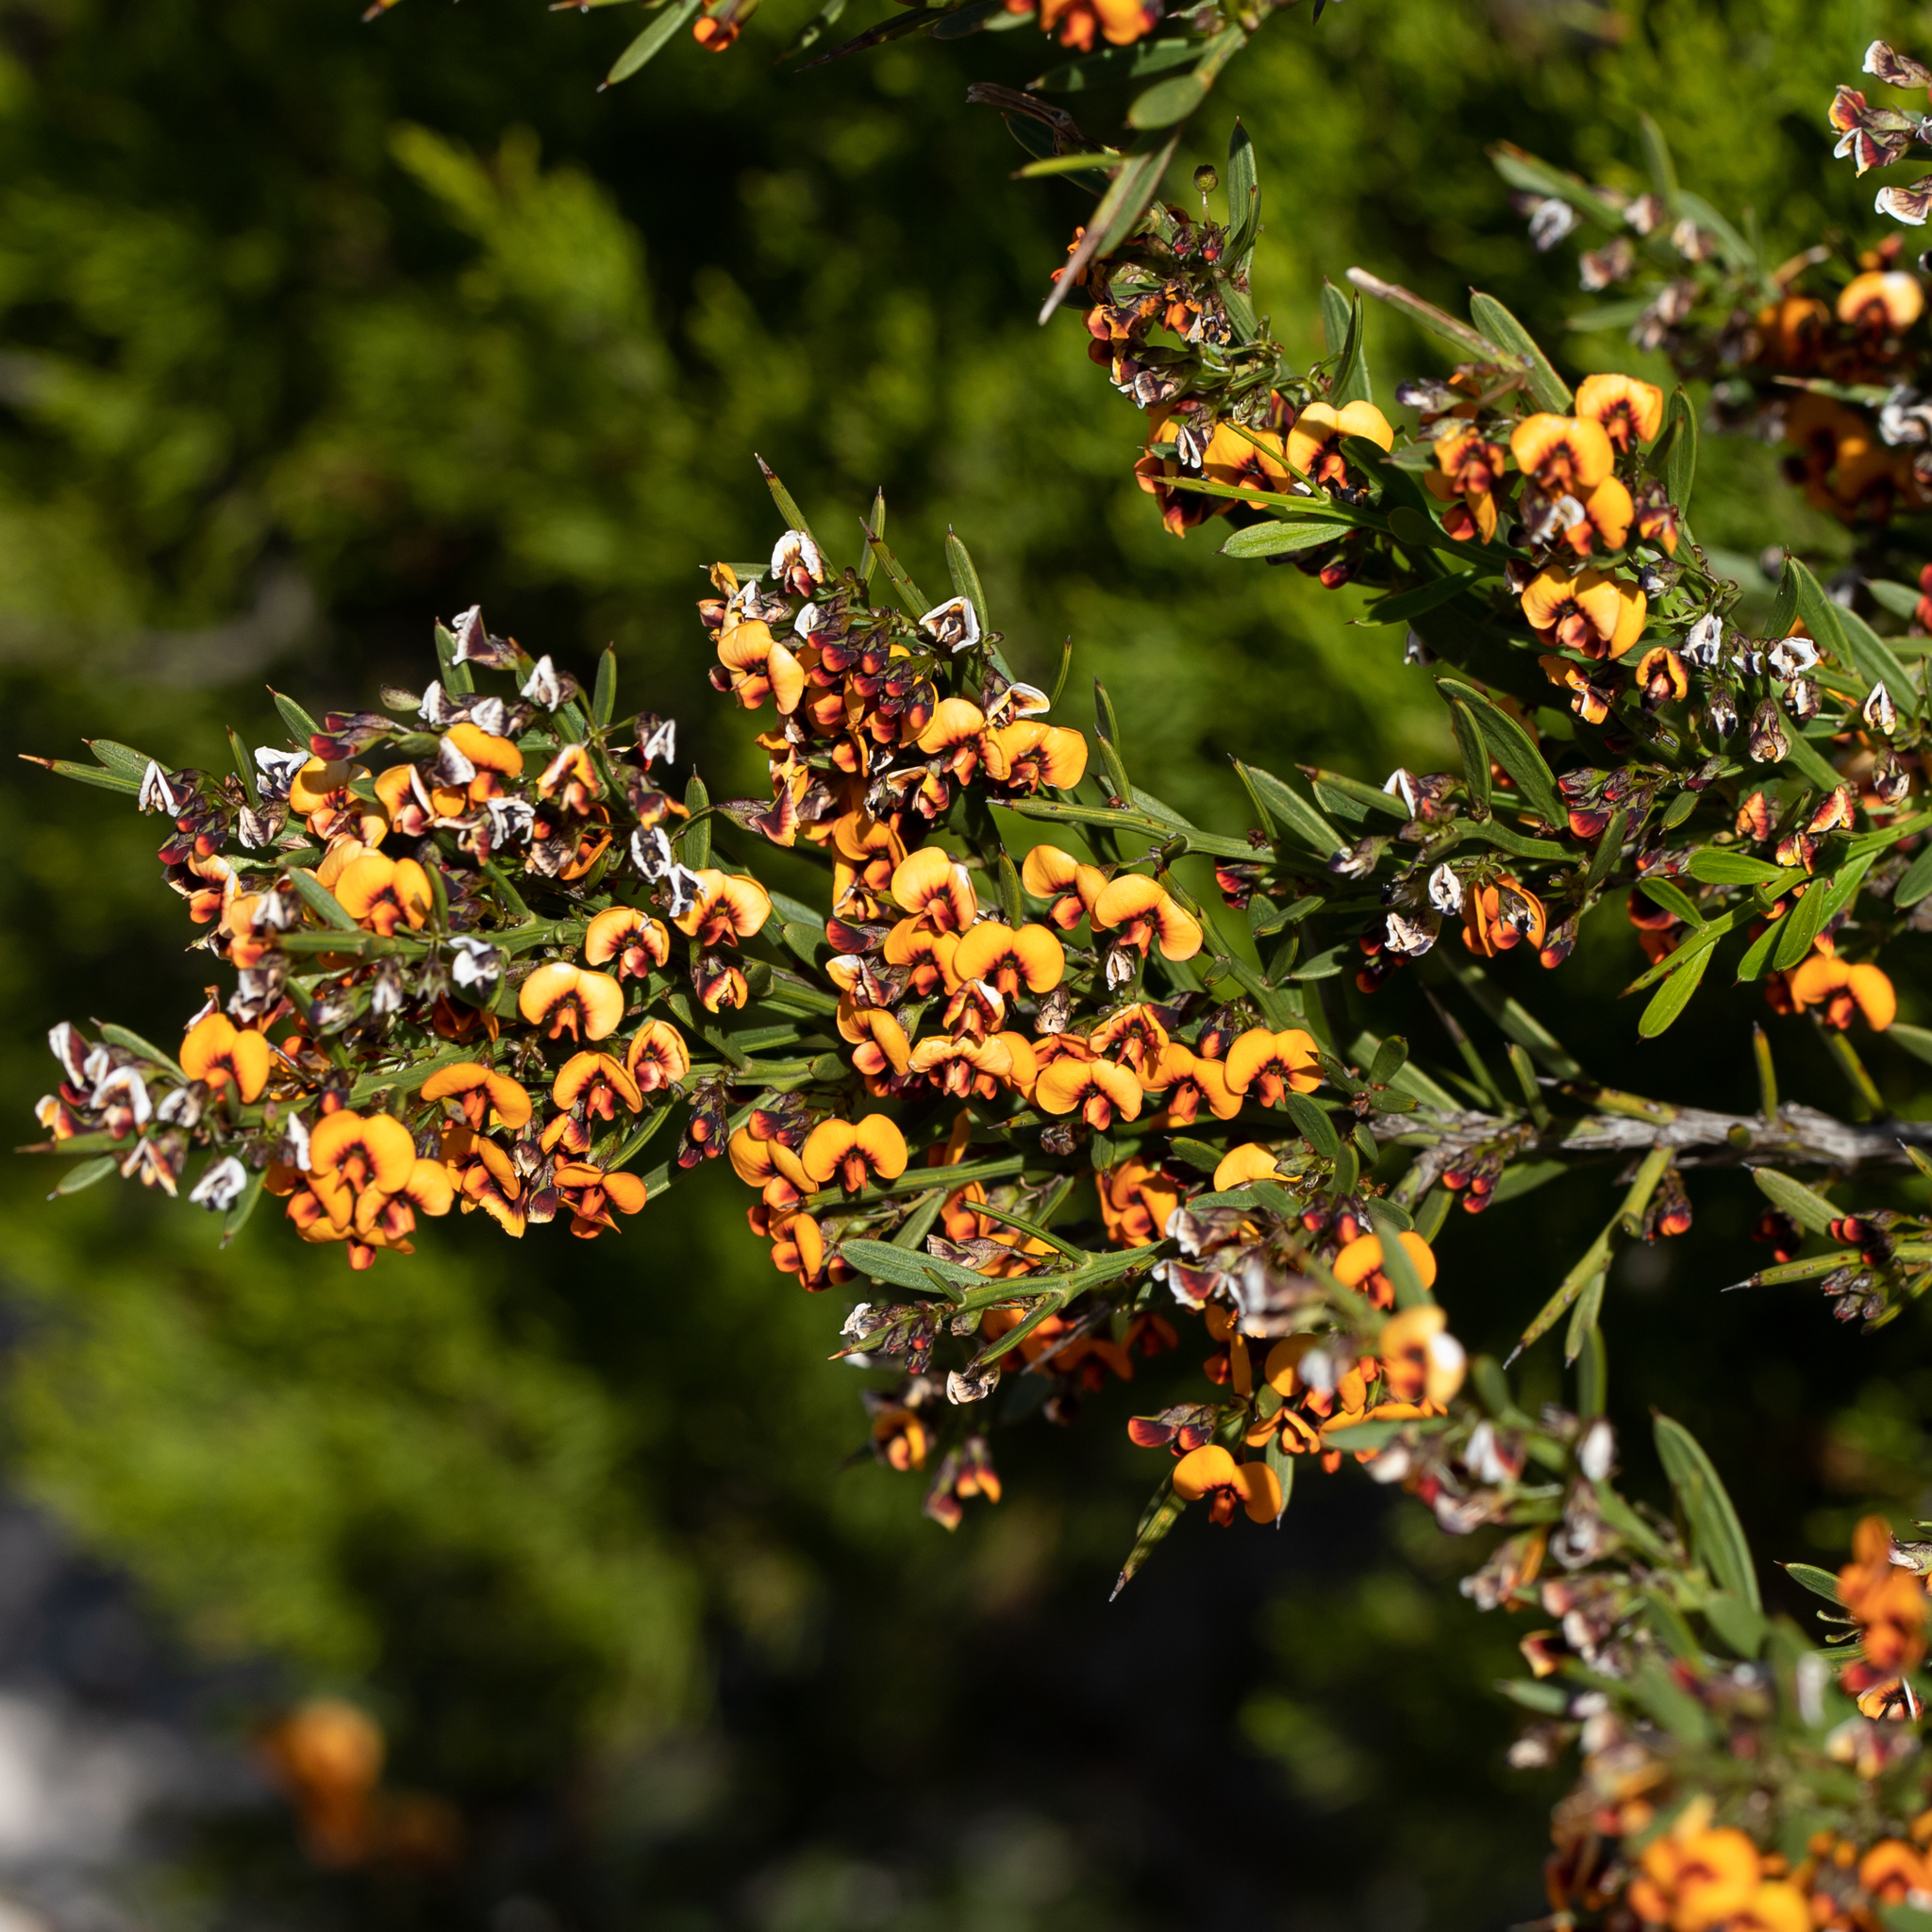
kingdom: Plantae
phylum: Tracheophyta
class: Magnoliopsida
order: Fabales
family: Fabaceae
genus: Daviesia
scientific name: Daviesia sejugata
